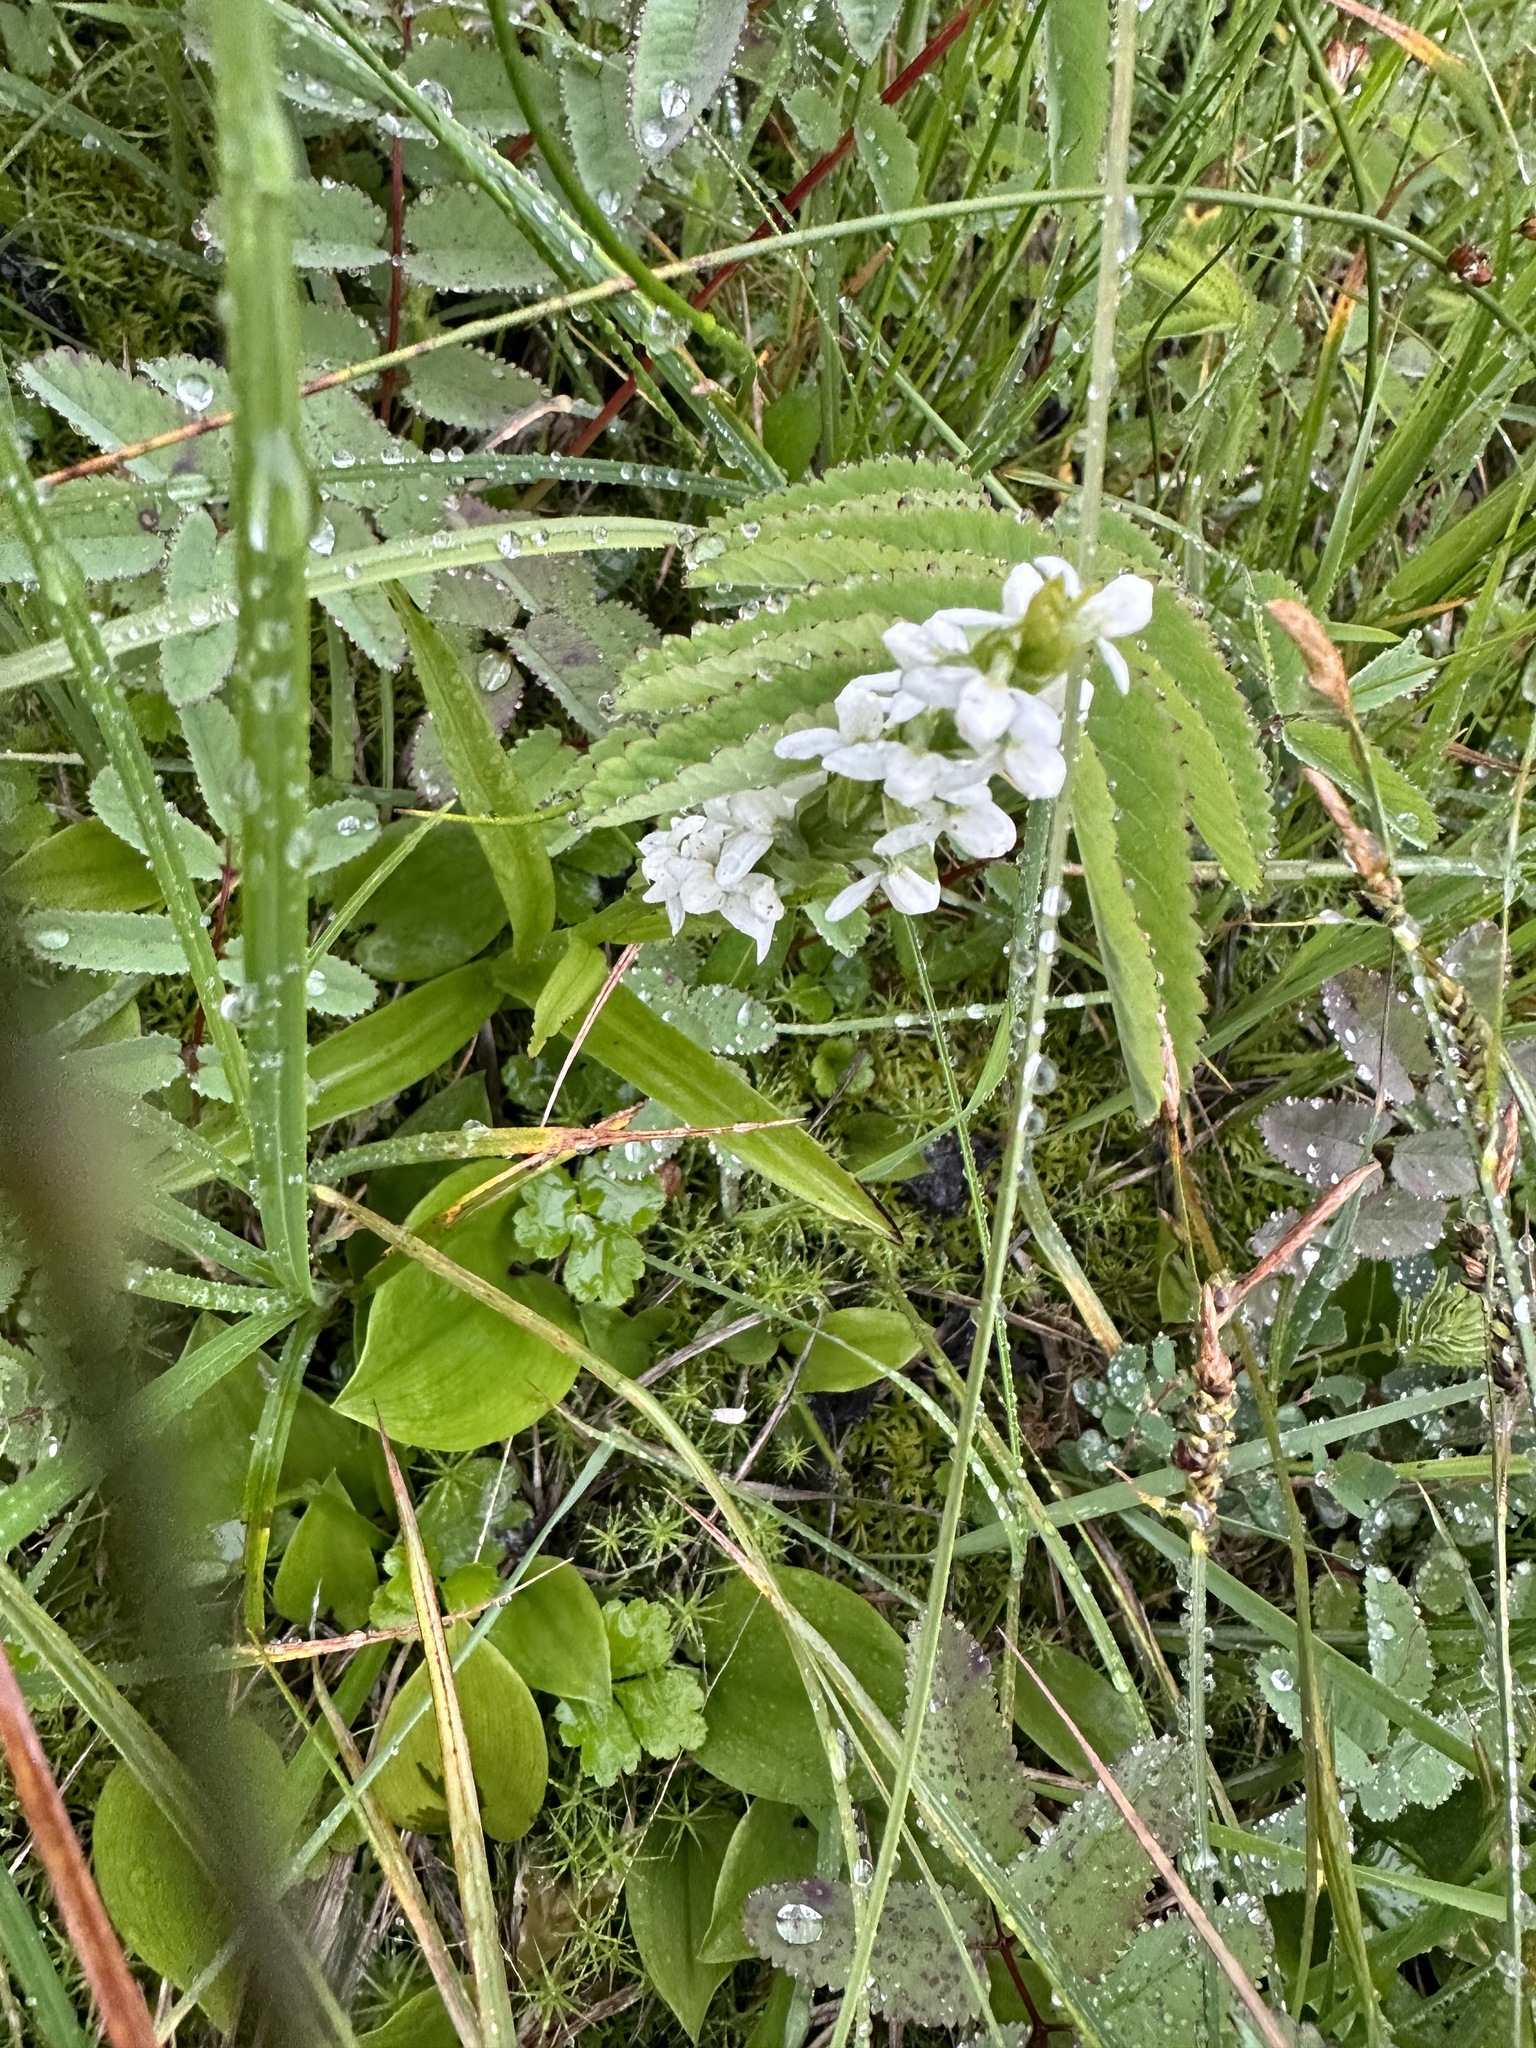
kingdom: Plantae
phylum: Tracheophyta
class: Liliopsida
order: Asparagales
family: Orchidaceae
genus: Platanthera
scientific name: Platanthera dilatata
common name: Bog candles
